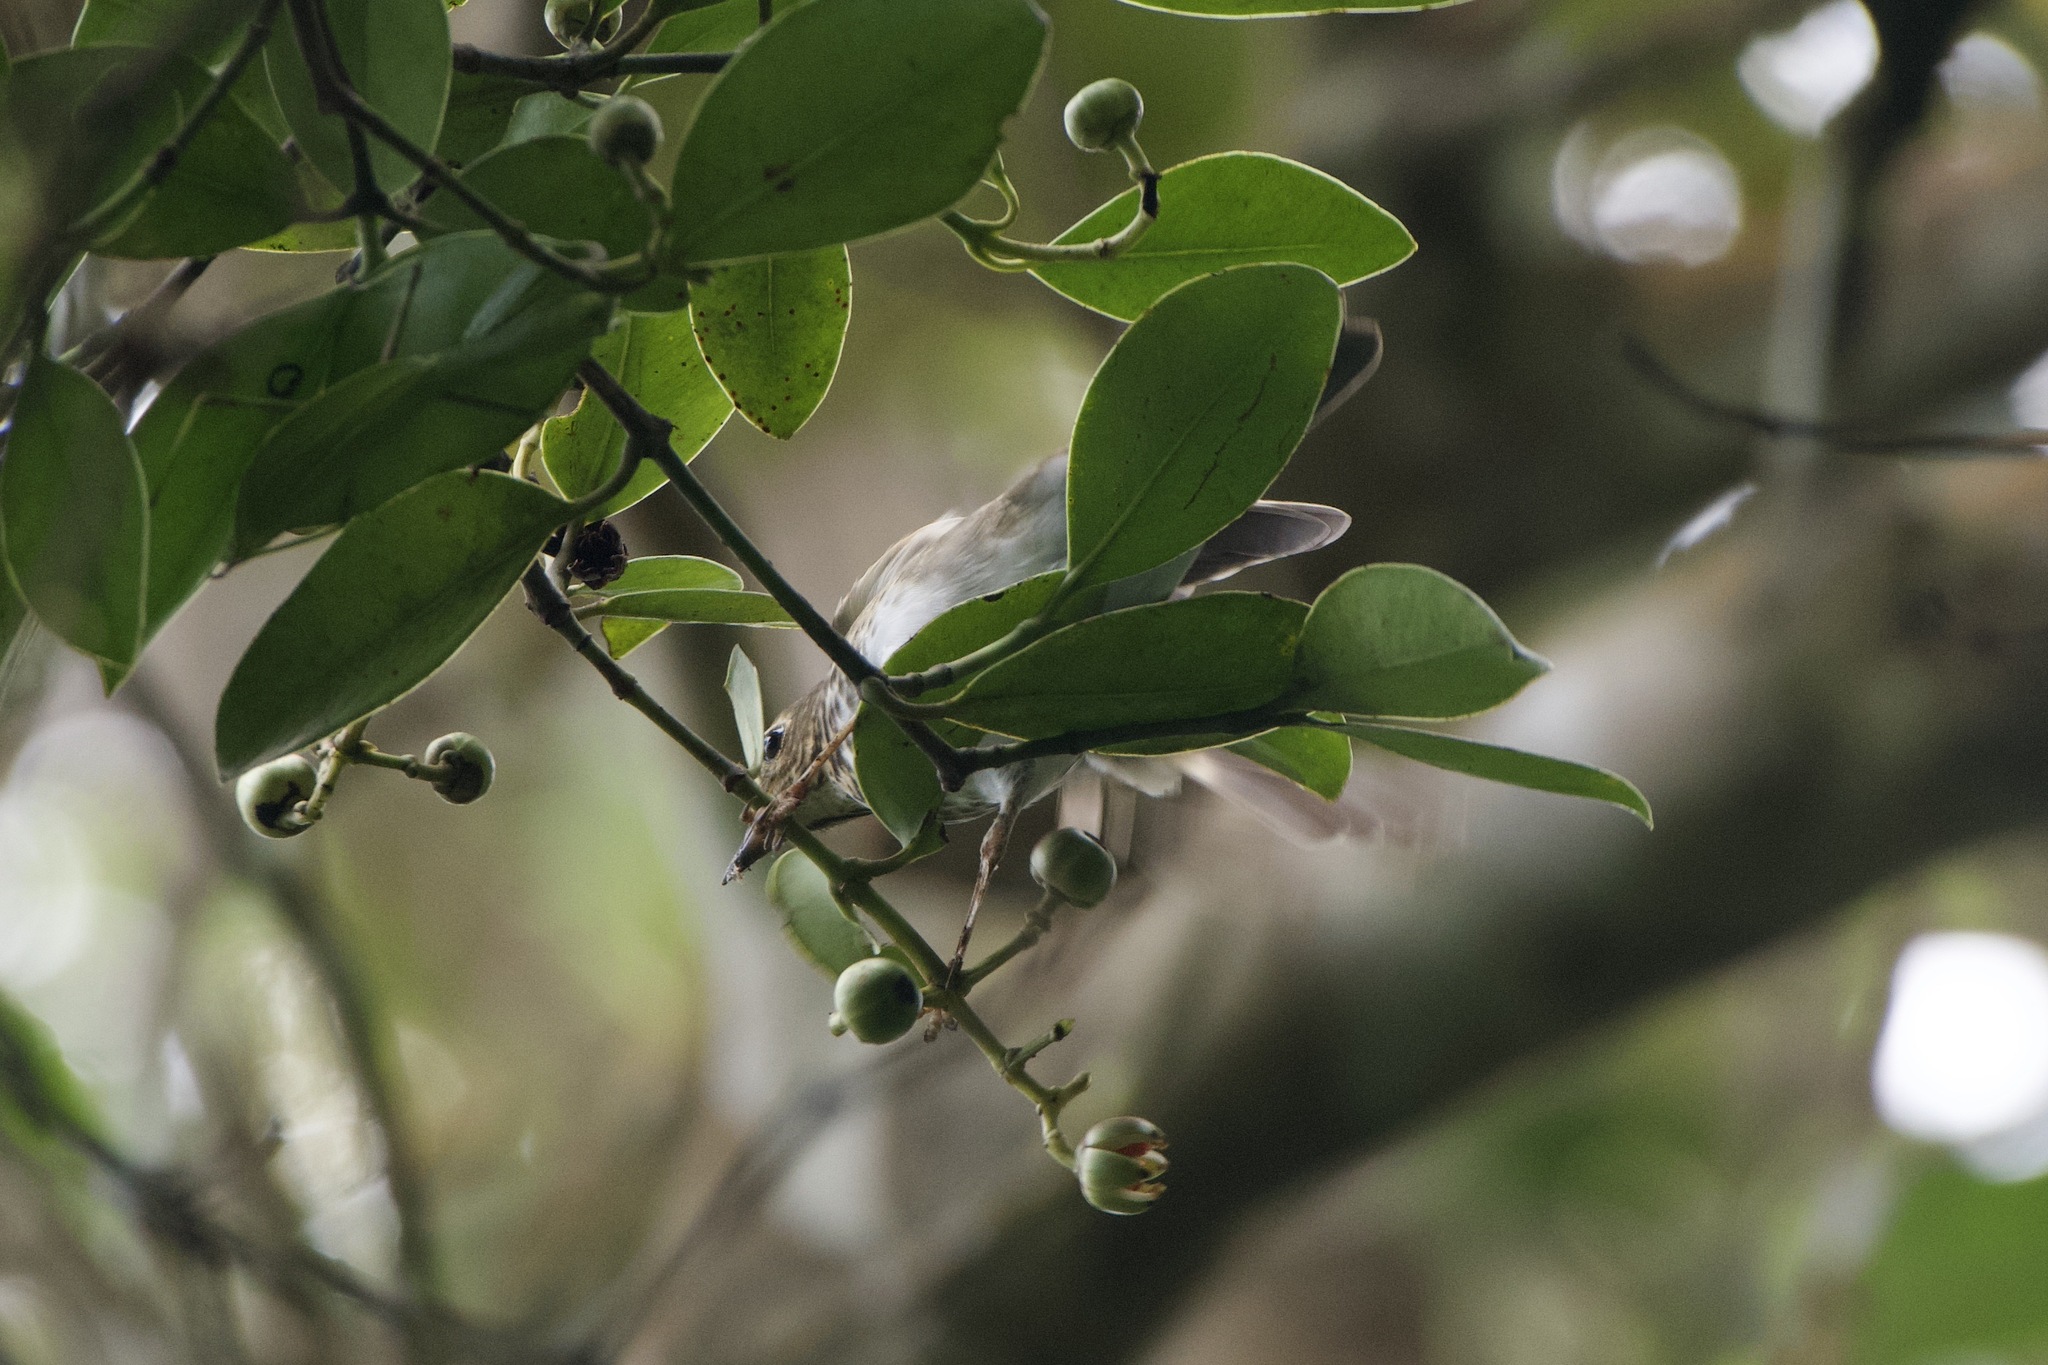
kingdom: Animalia
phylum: Chordata
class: Aves
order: Passeriformes
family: Turdidae
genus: Catharus
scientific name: Catharus ustulatus
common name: Swainson's thrush
